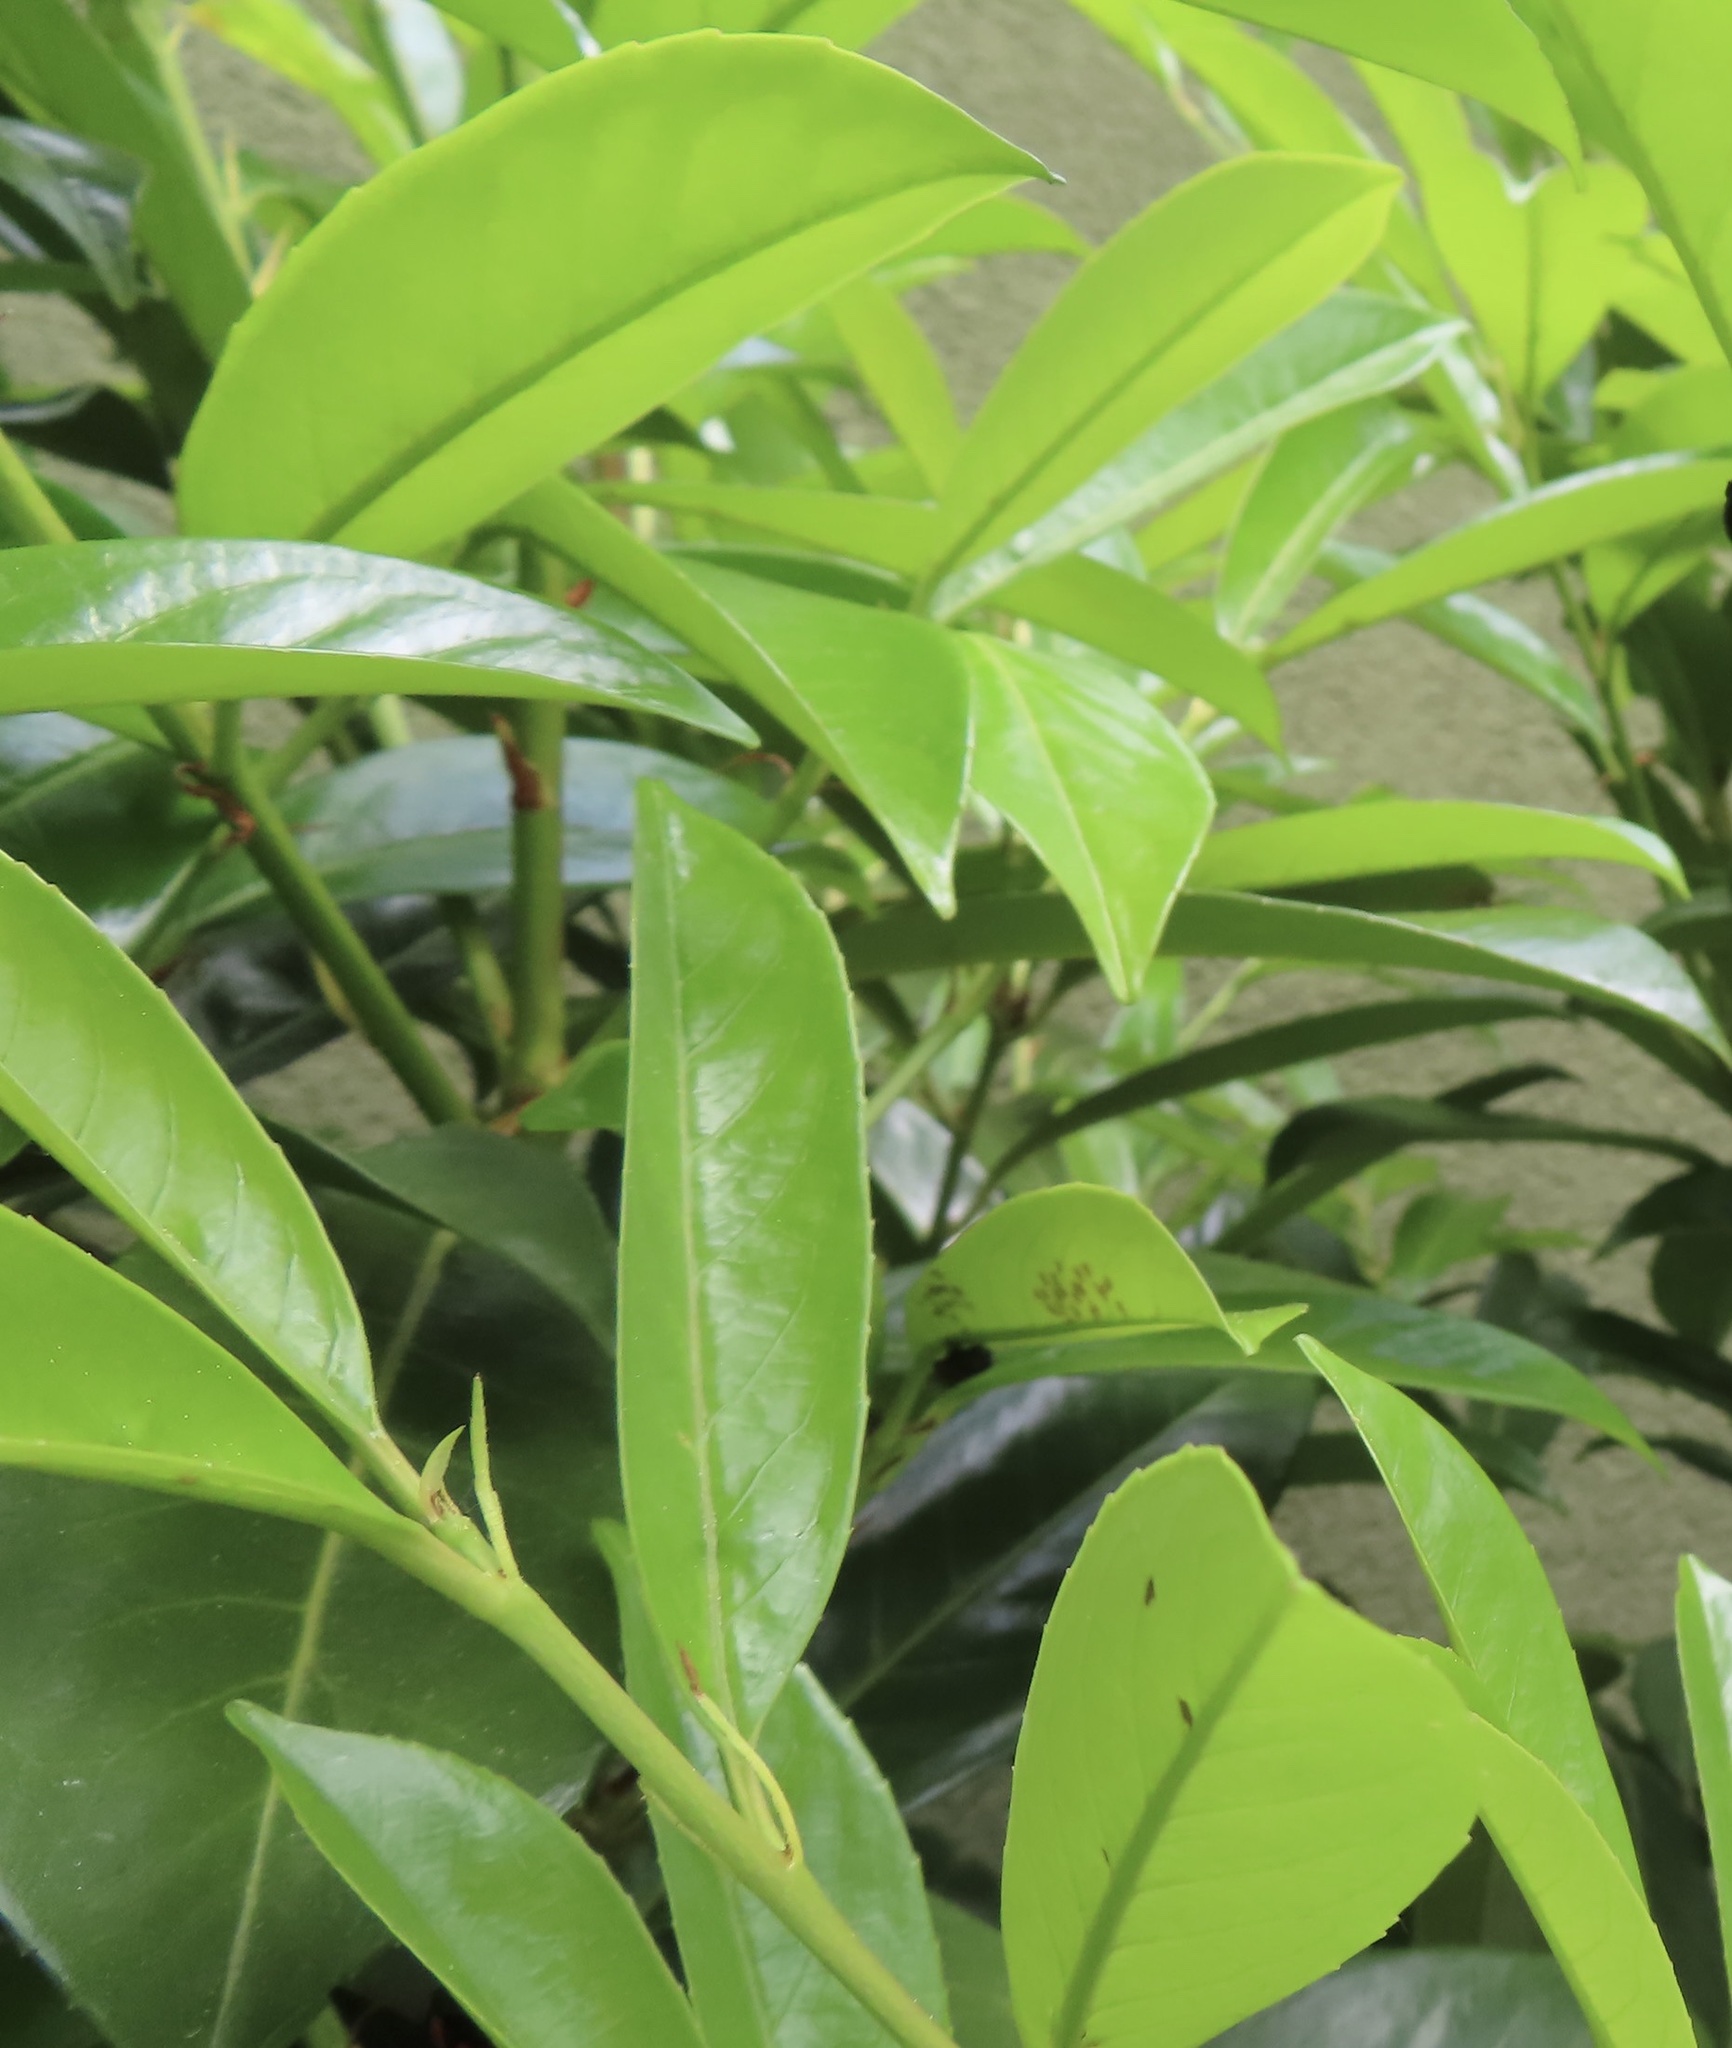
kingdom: Plantae
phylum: Tracheophyta
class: Magnoliopsida
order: Rosales
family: Rosaceae
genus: Prunus
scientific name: Prunus laurocerasus
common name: Cherry laurel
